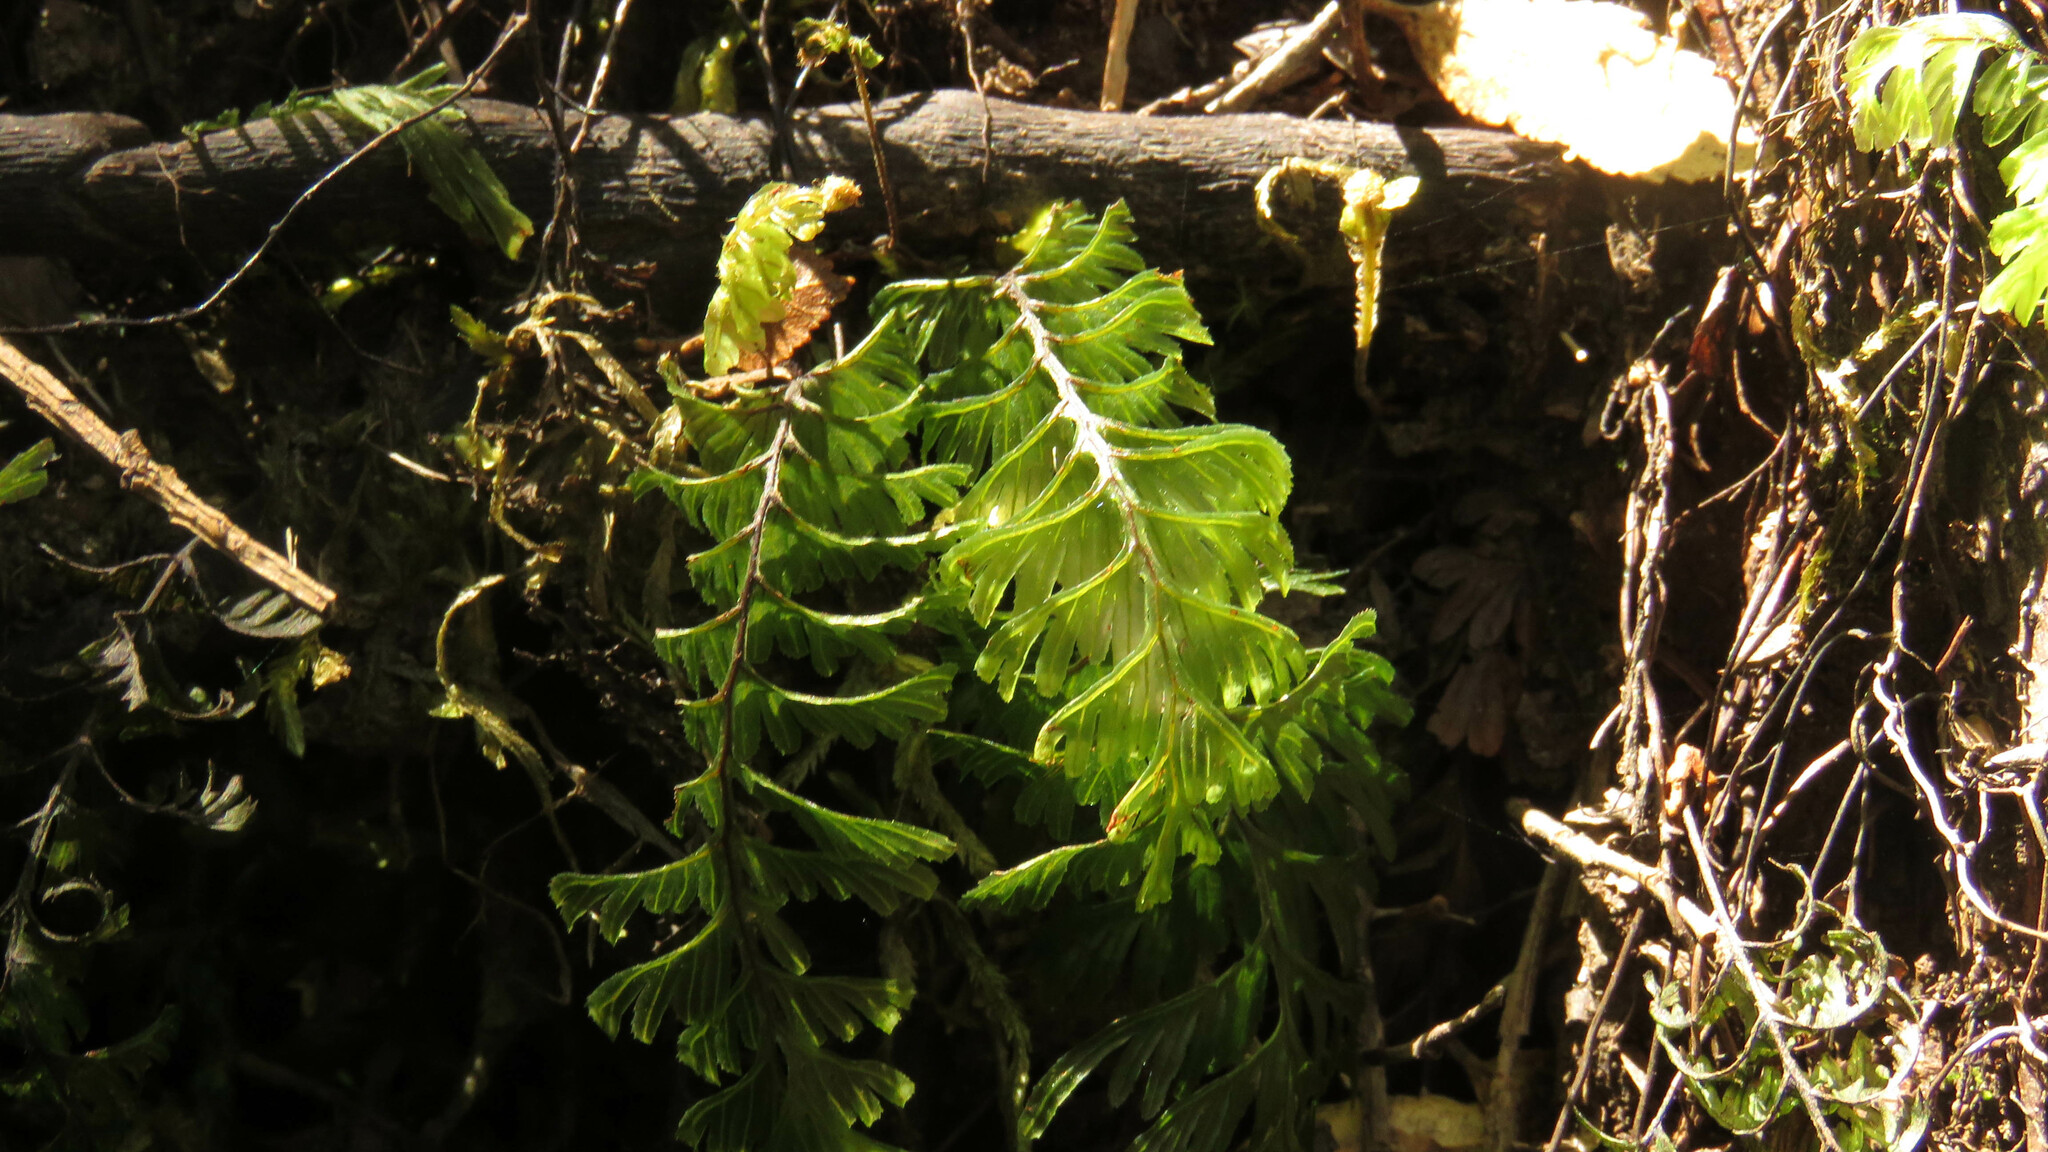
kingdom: Plantae
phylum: Tracheophyta
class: Polypodiopsida
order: Hymenophyllales
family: Hymenophyllaceae
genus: Hymenophyllum
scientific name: Hymenophyllum pectinatum
